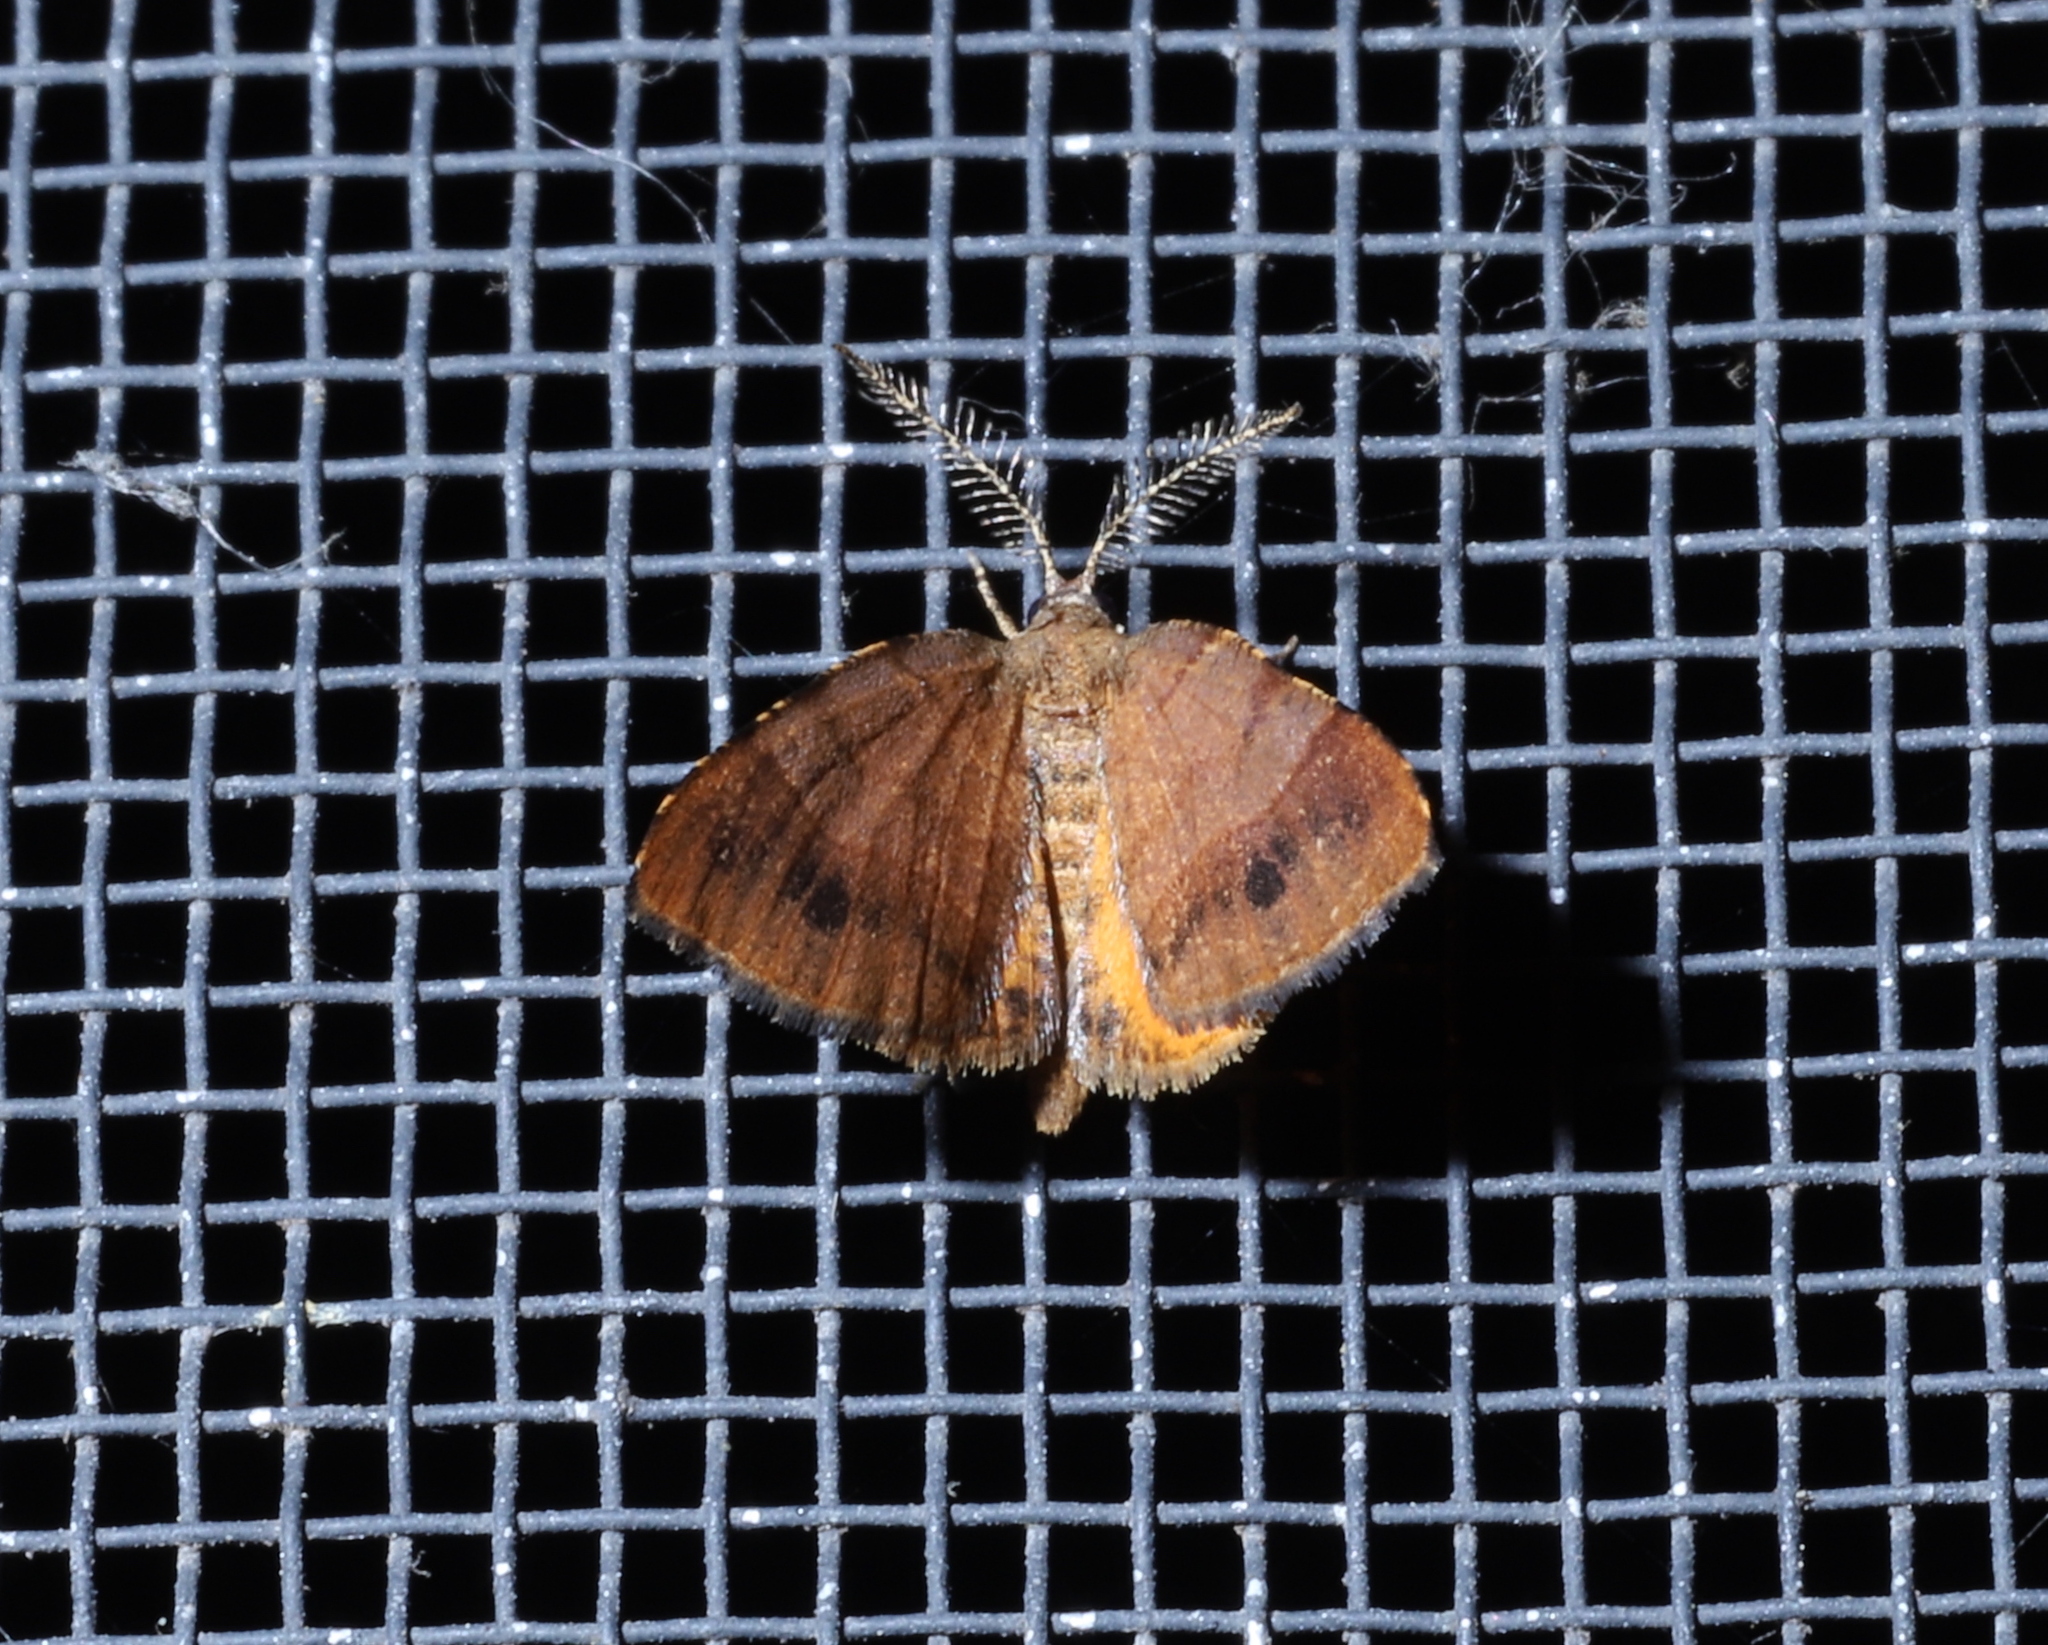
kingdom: Animalia
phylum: Arthropoda
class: Insecta
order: Lepidoptera
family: Geometridae
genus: Mellilla
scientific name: Mellilla xanthometata
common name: Orange wing moth
